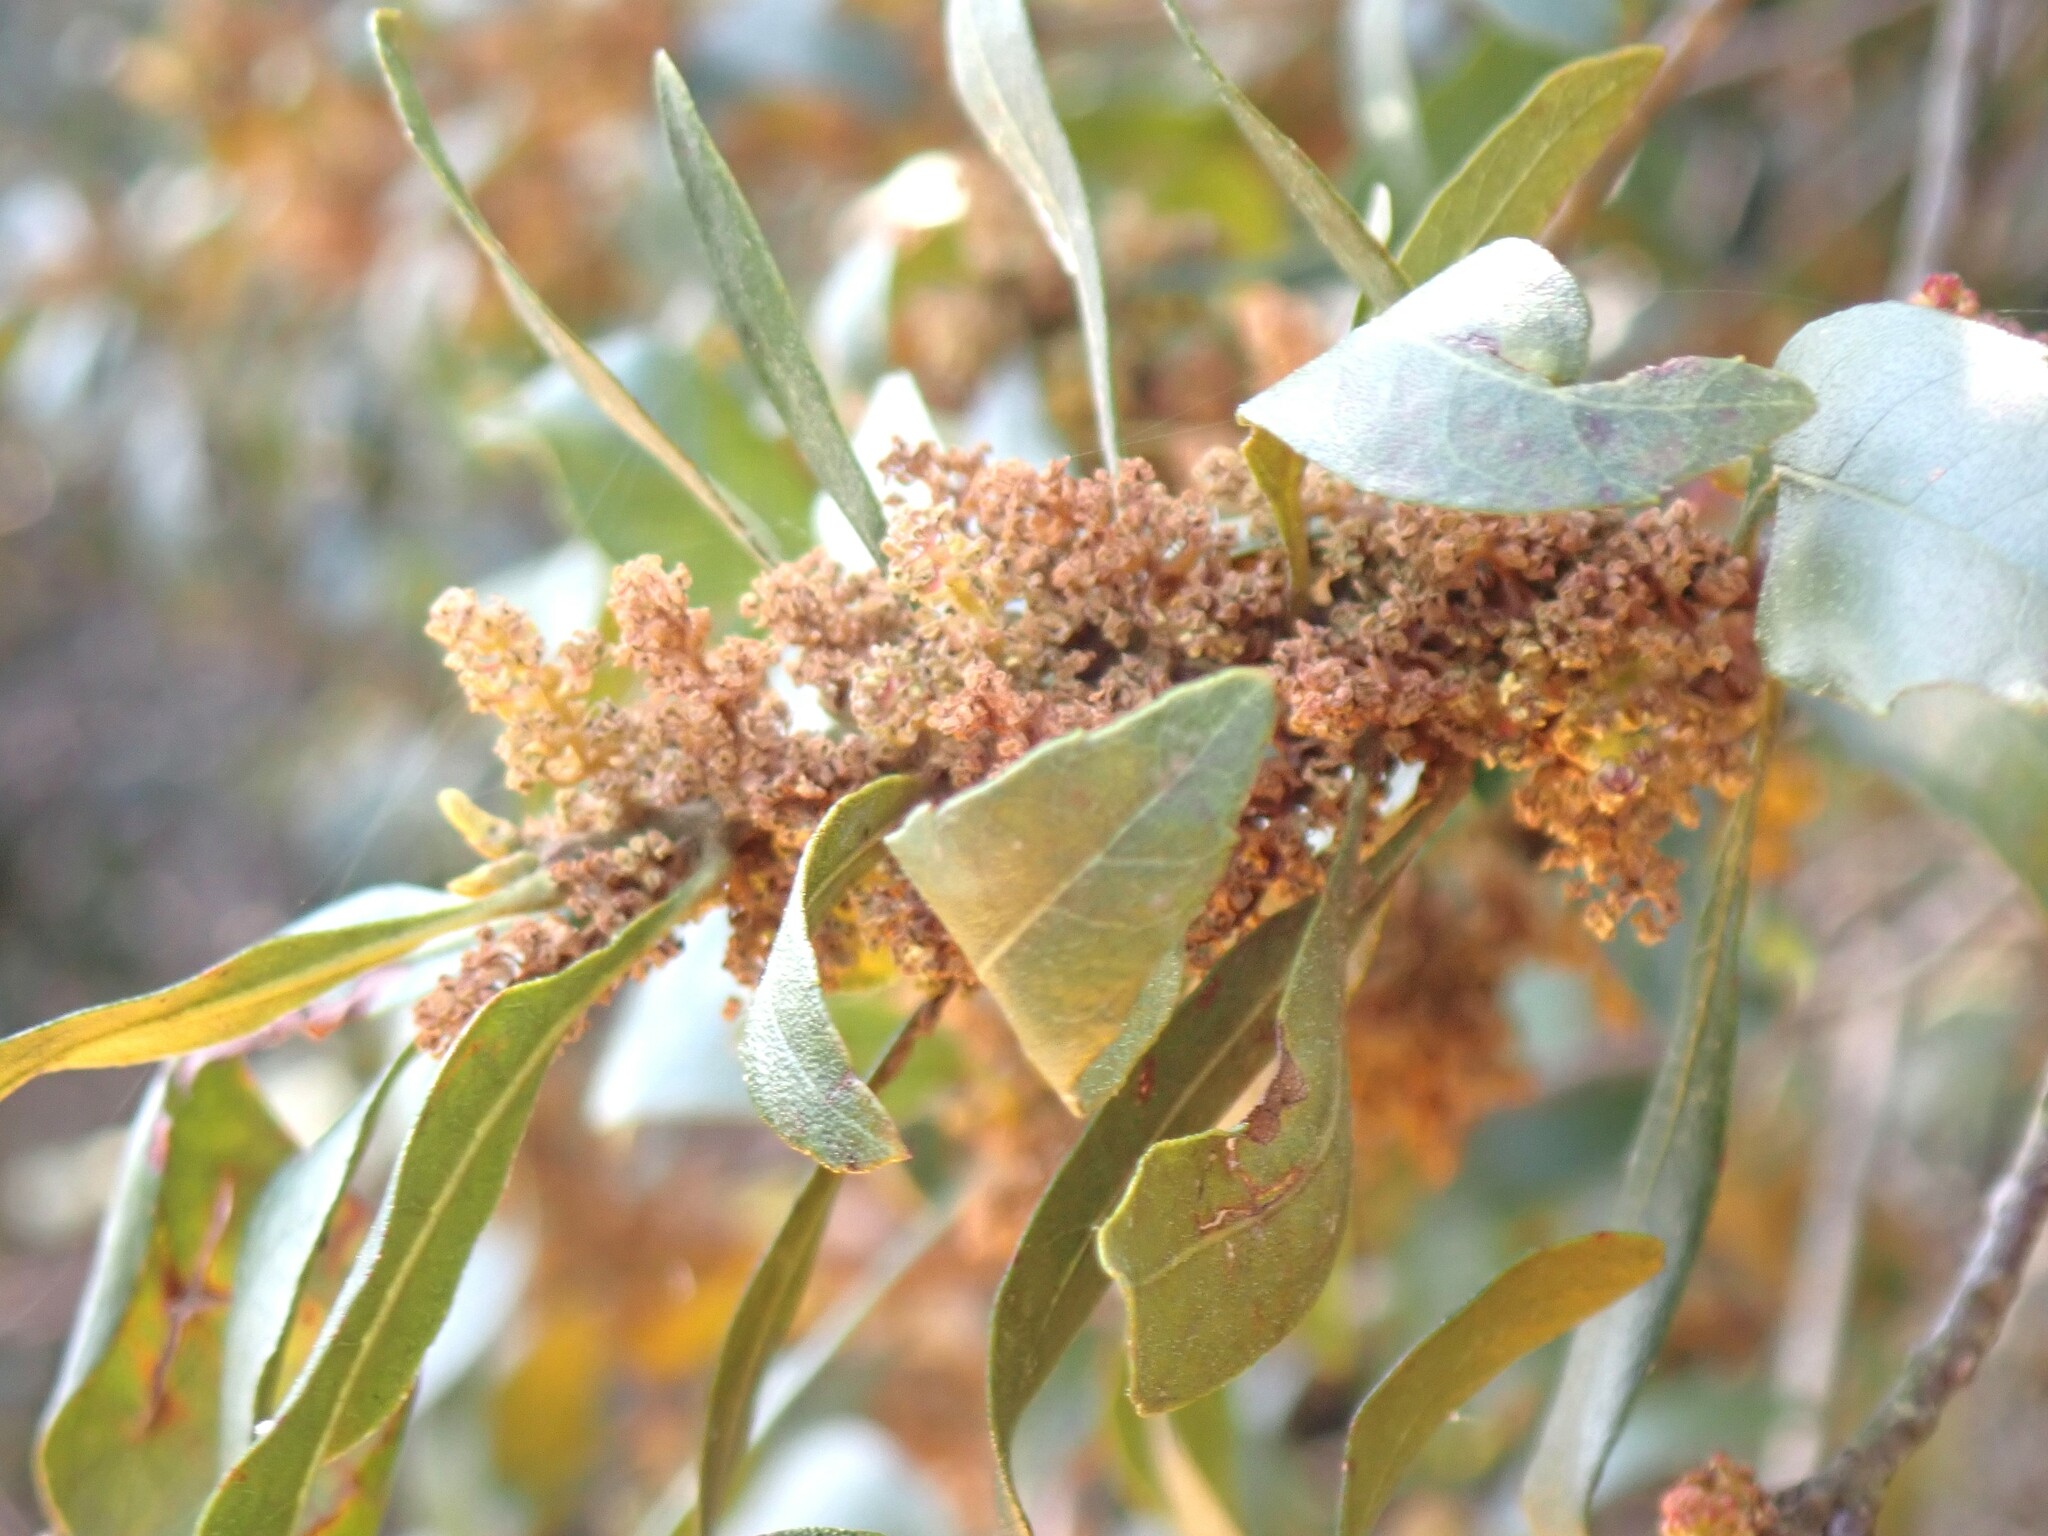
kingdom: Plantae
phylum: Tracheophyta
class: Magnoliopsida
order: Fagales
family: Myricaceae
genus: Morella
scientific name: Morella cerifera
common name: Wax myrtle
